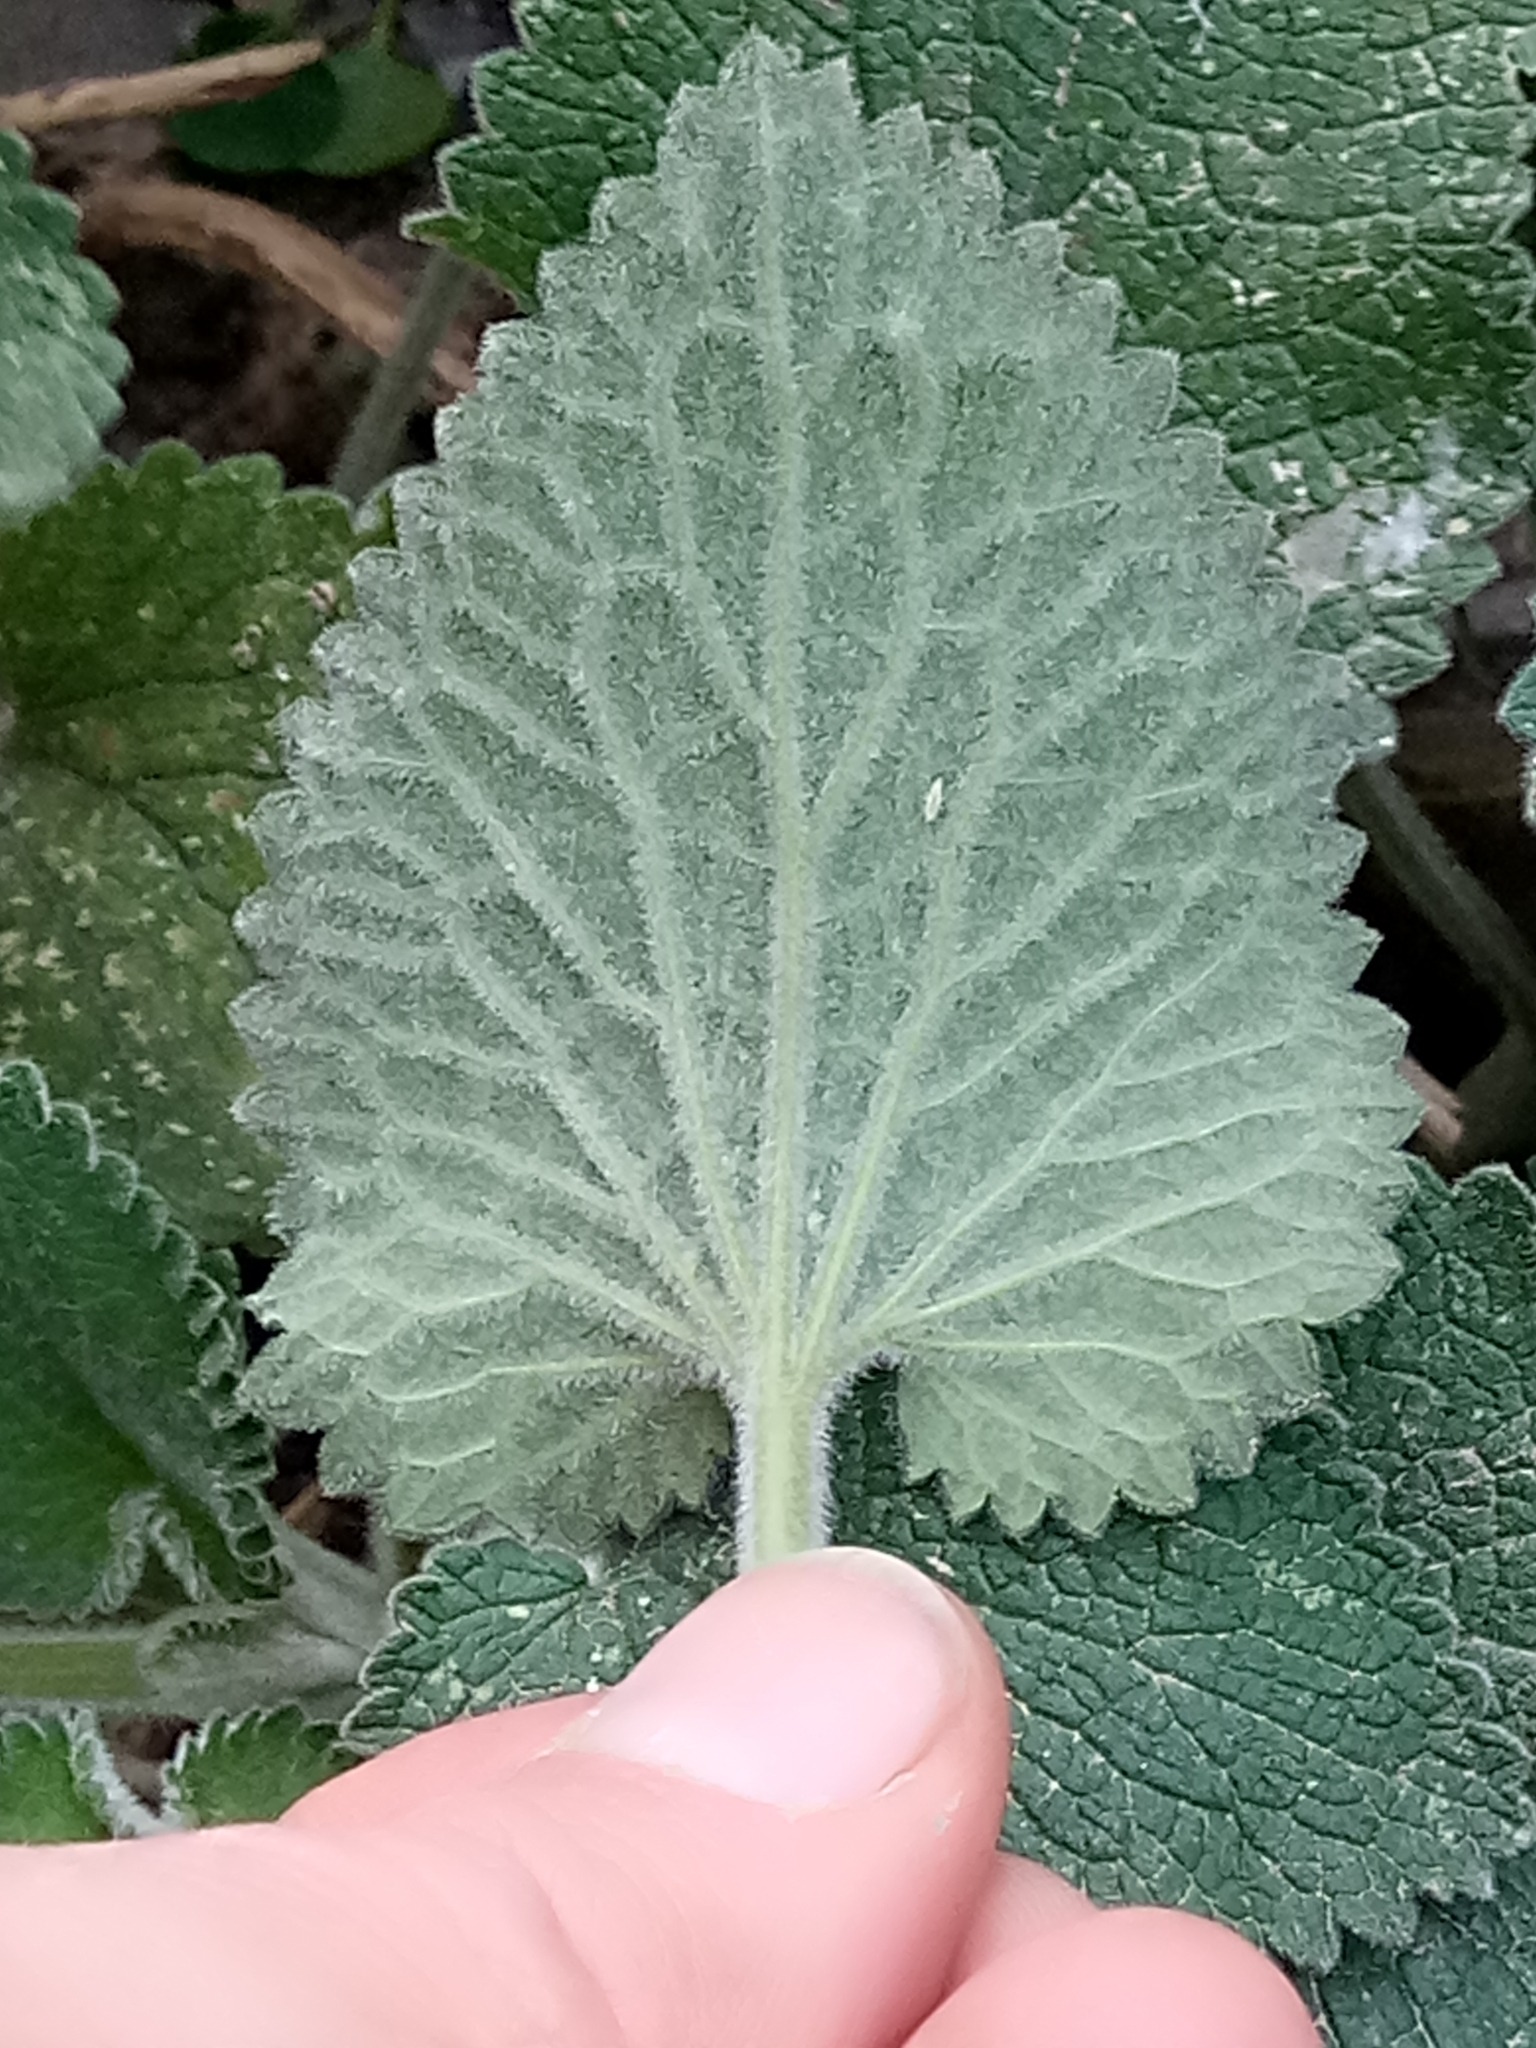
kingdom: Plantae
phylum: Tracheophyta
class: Magnoliopsida
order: Lamiales
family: Lamiaceae
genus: Stachys
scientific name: Stachys circinata
